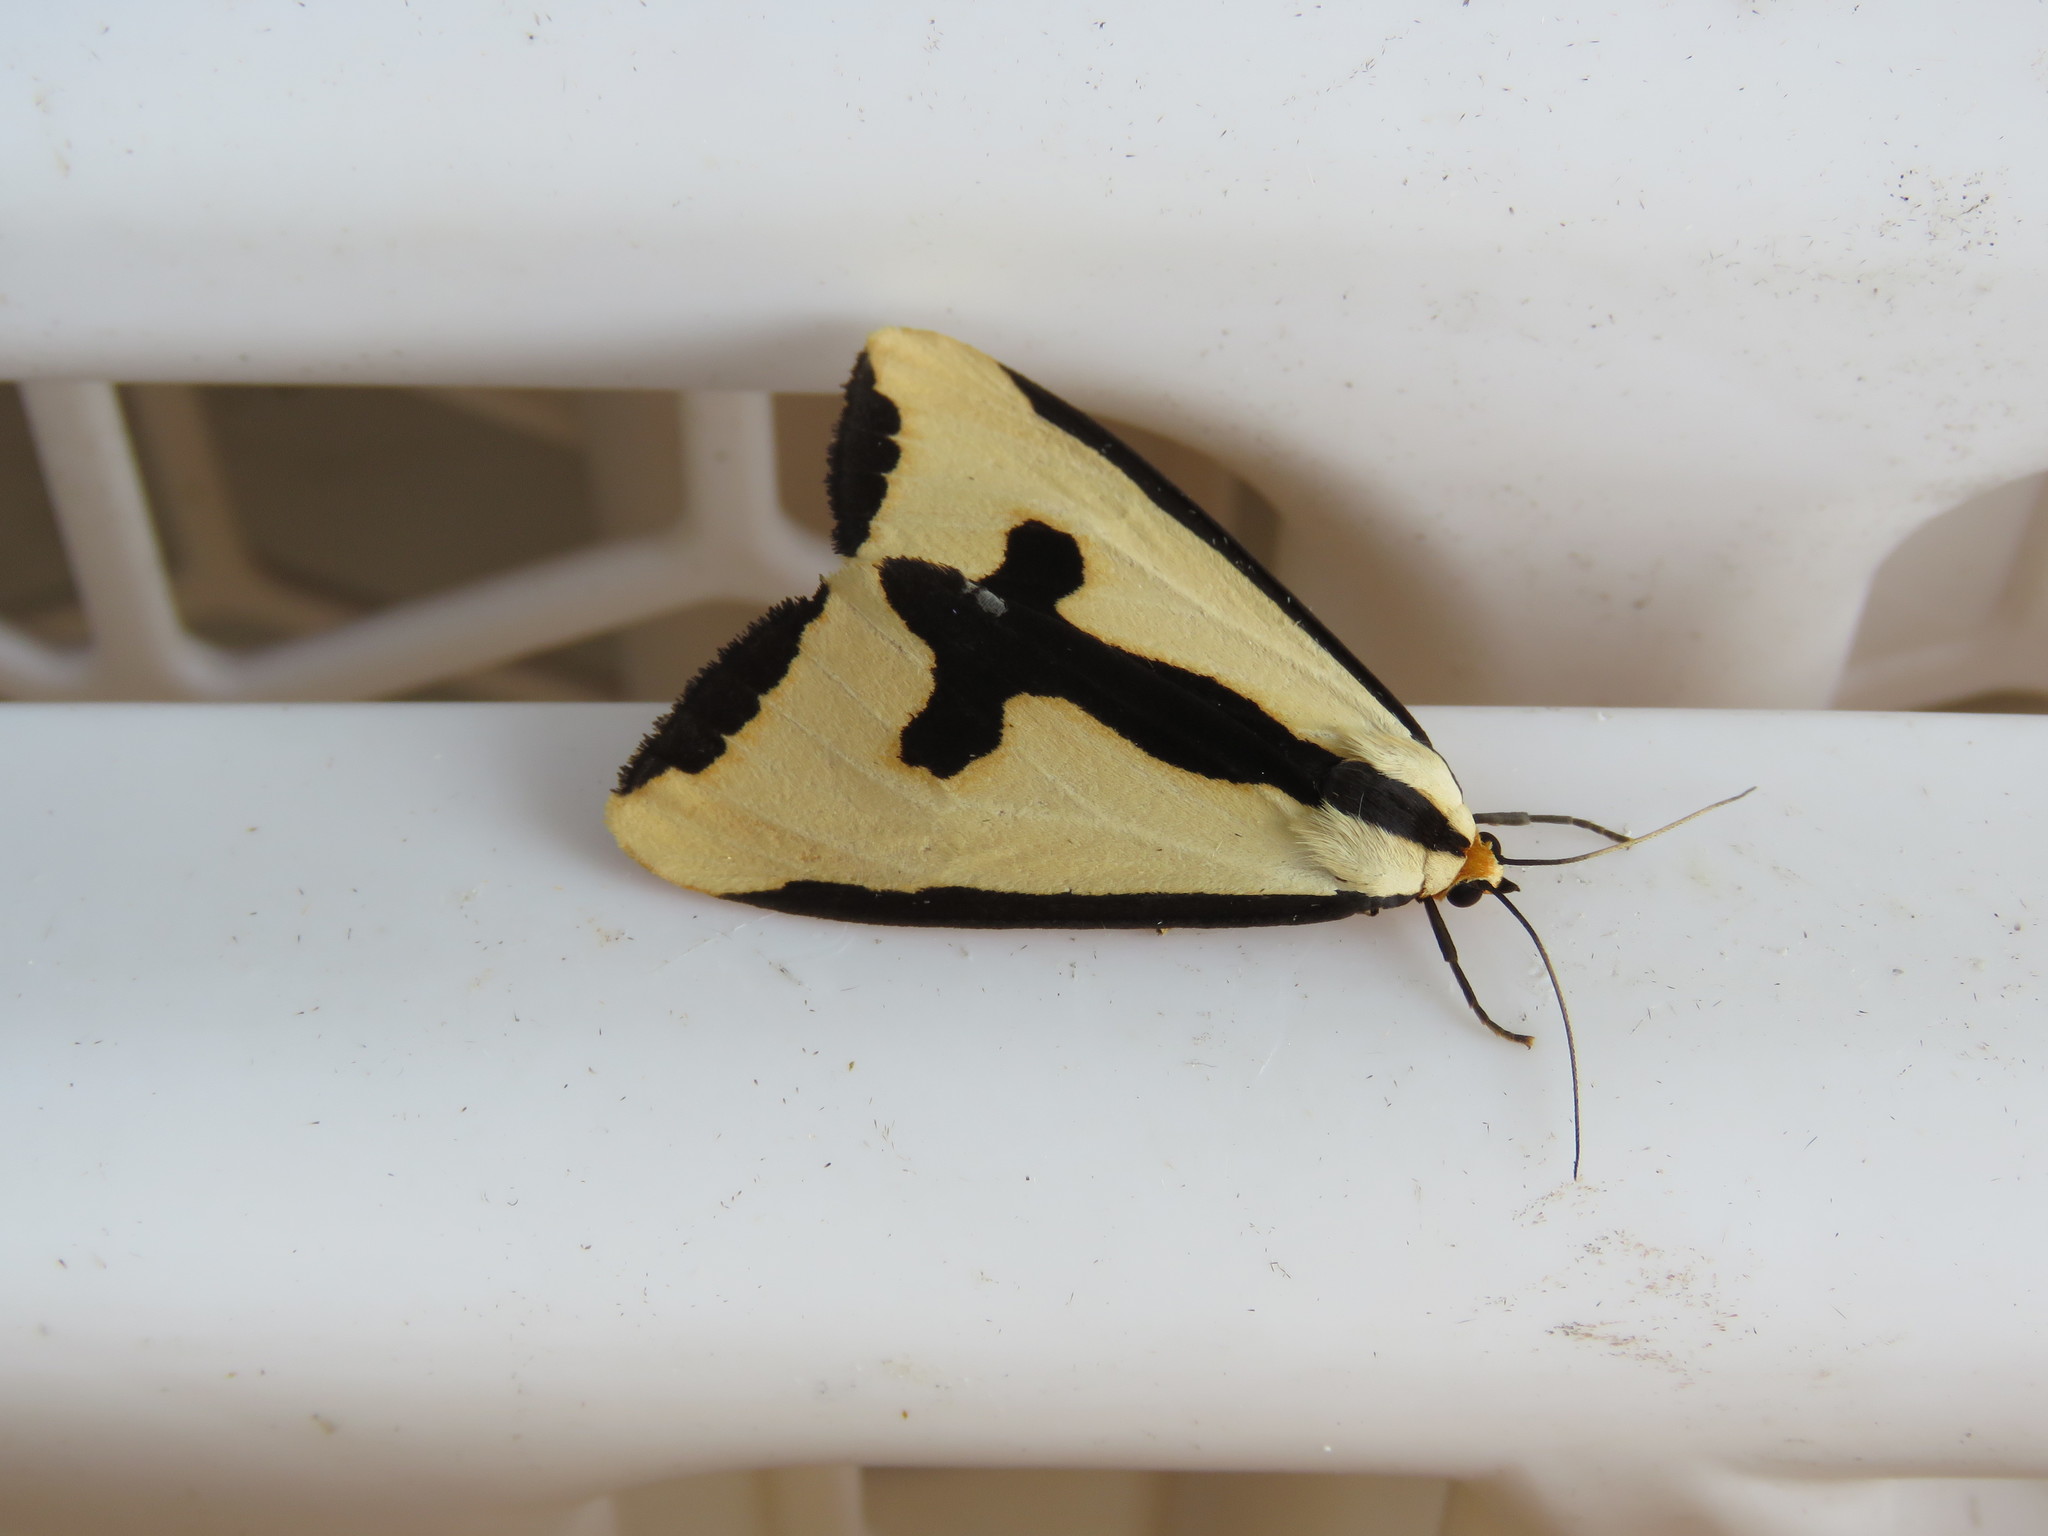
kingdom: Animalia
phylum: Arthropoda
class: Insecta
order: Lepidoptera
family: Erebidae
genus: Haploa
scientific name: Haploa clymene
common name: Clymene moth
